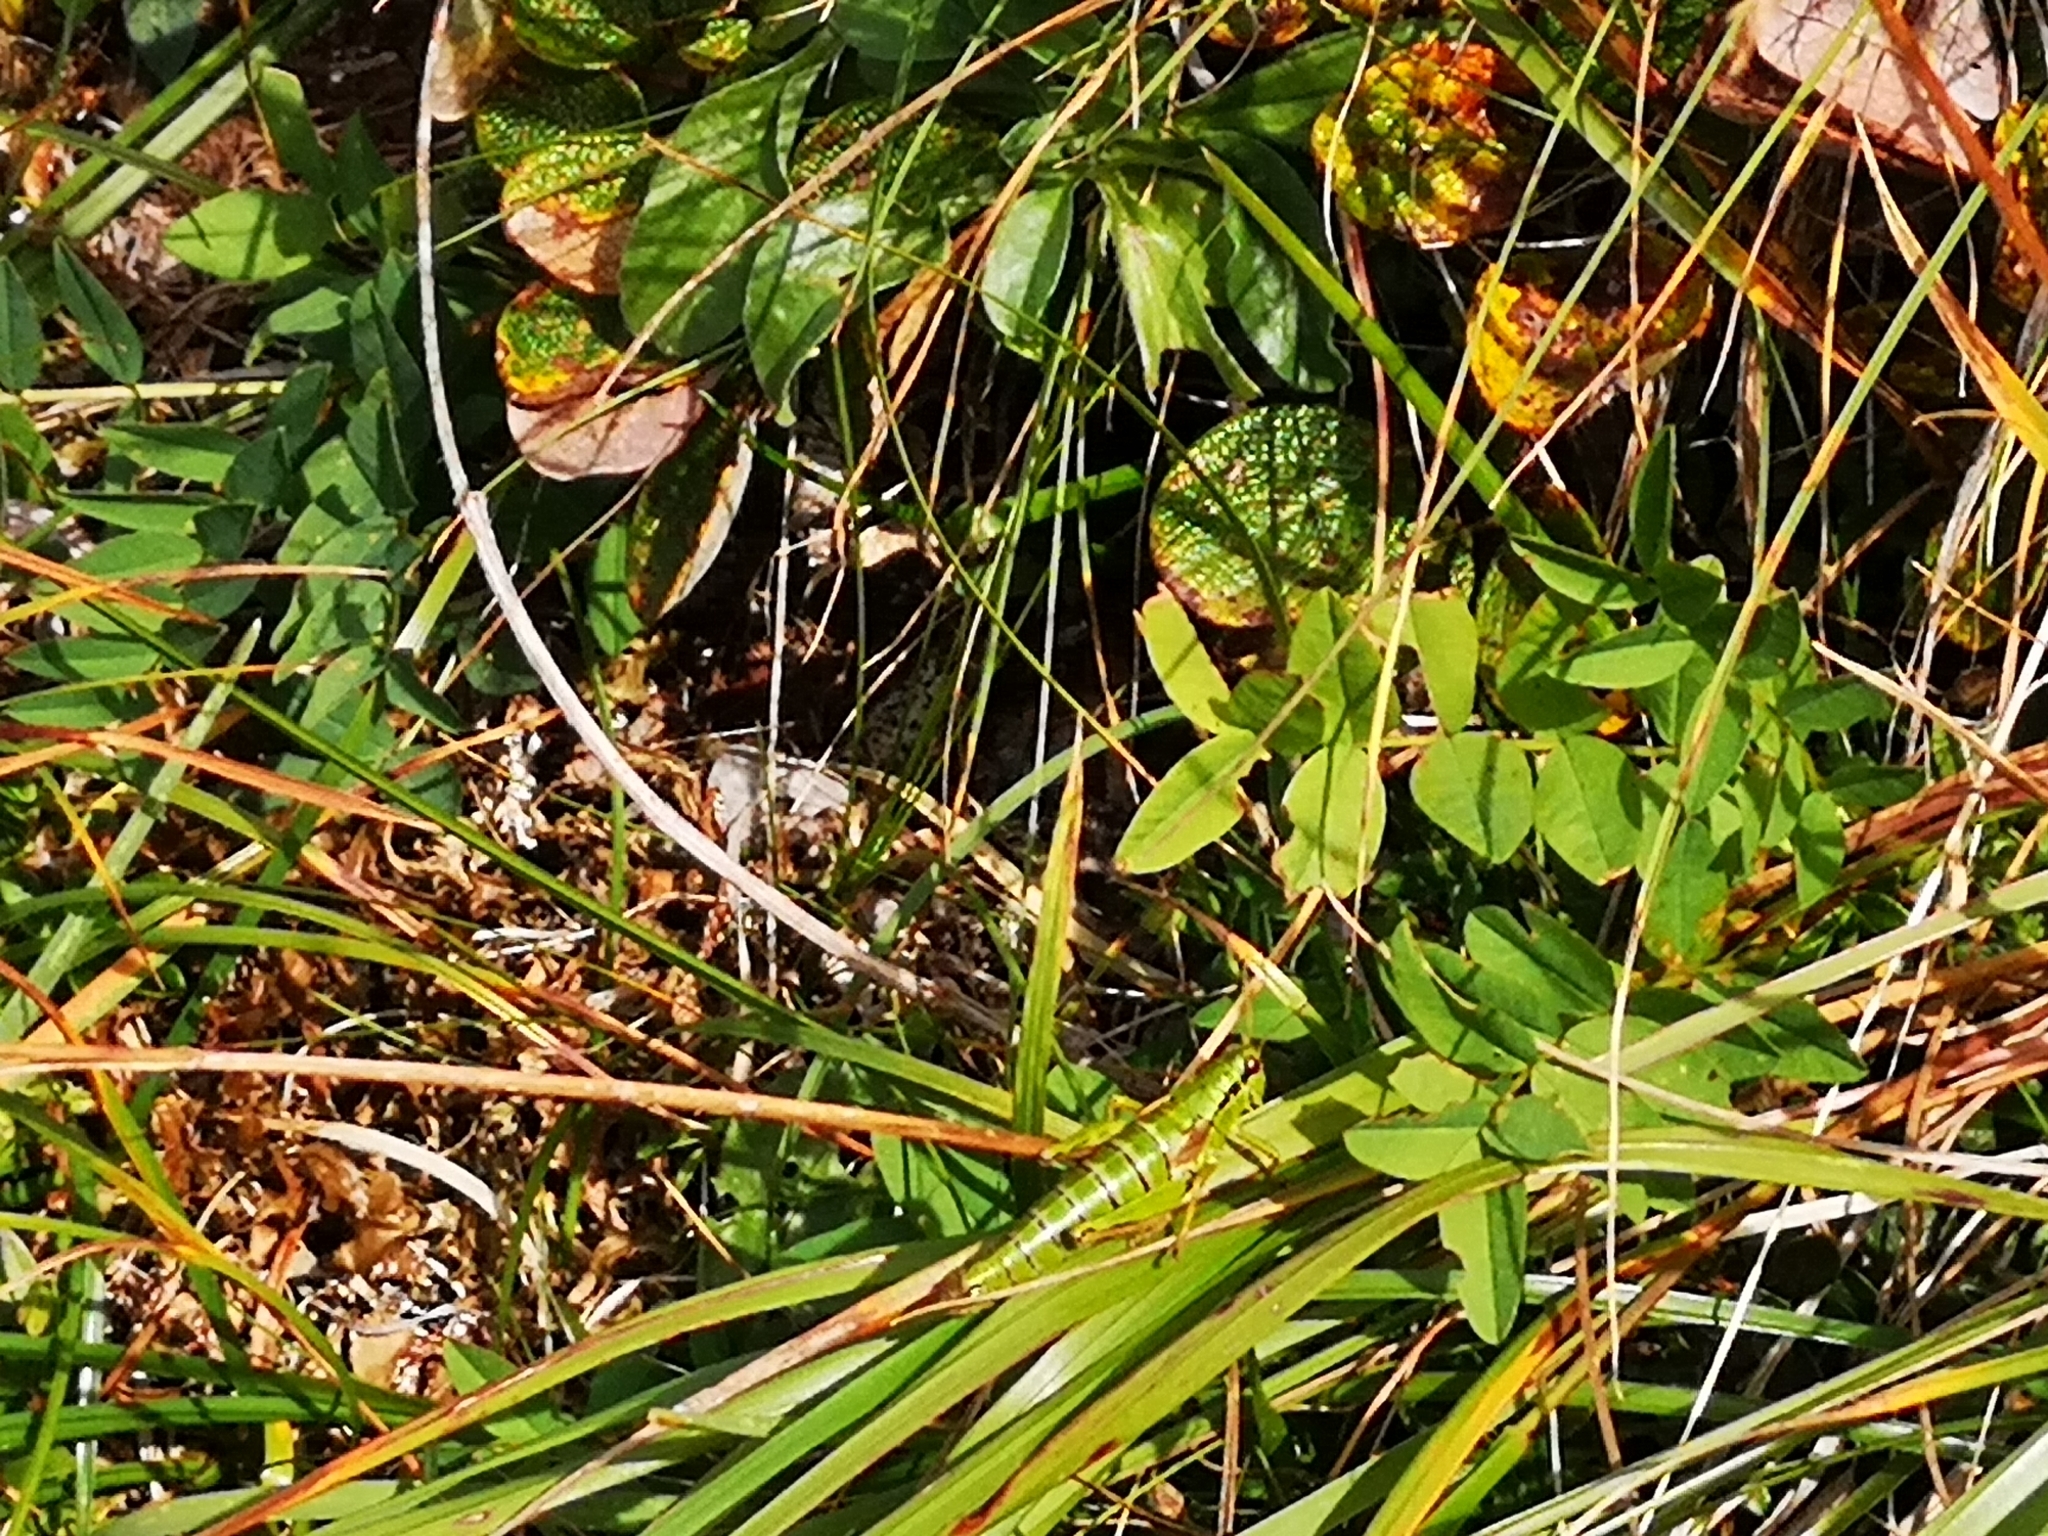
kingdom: Animalia
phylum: Arthropoda
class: Insecta
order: Orthoptera
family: Acrididae
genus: Miramella
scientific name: Miramella alpina
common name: Green mountain grasshopper
